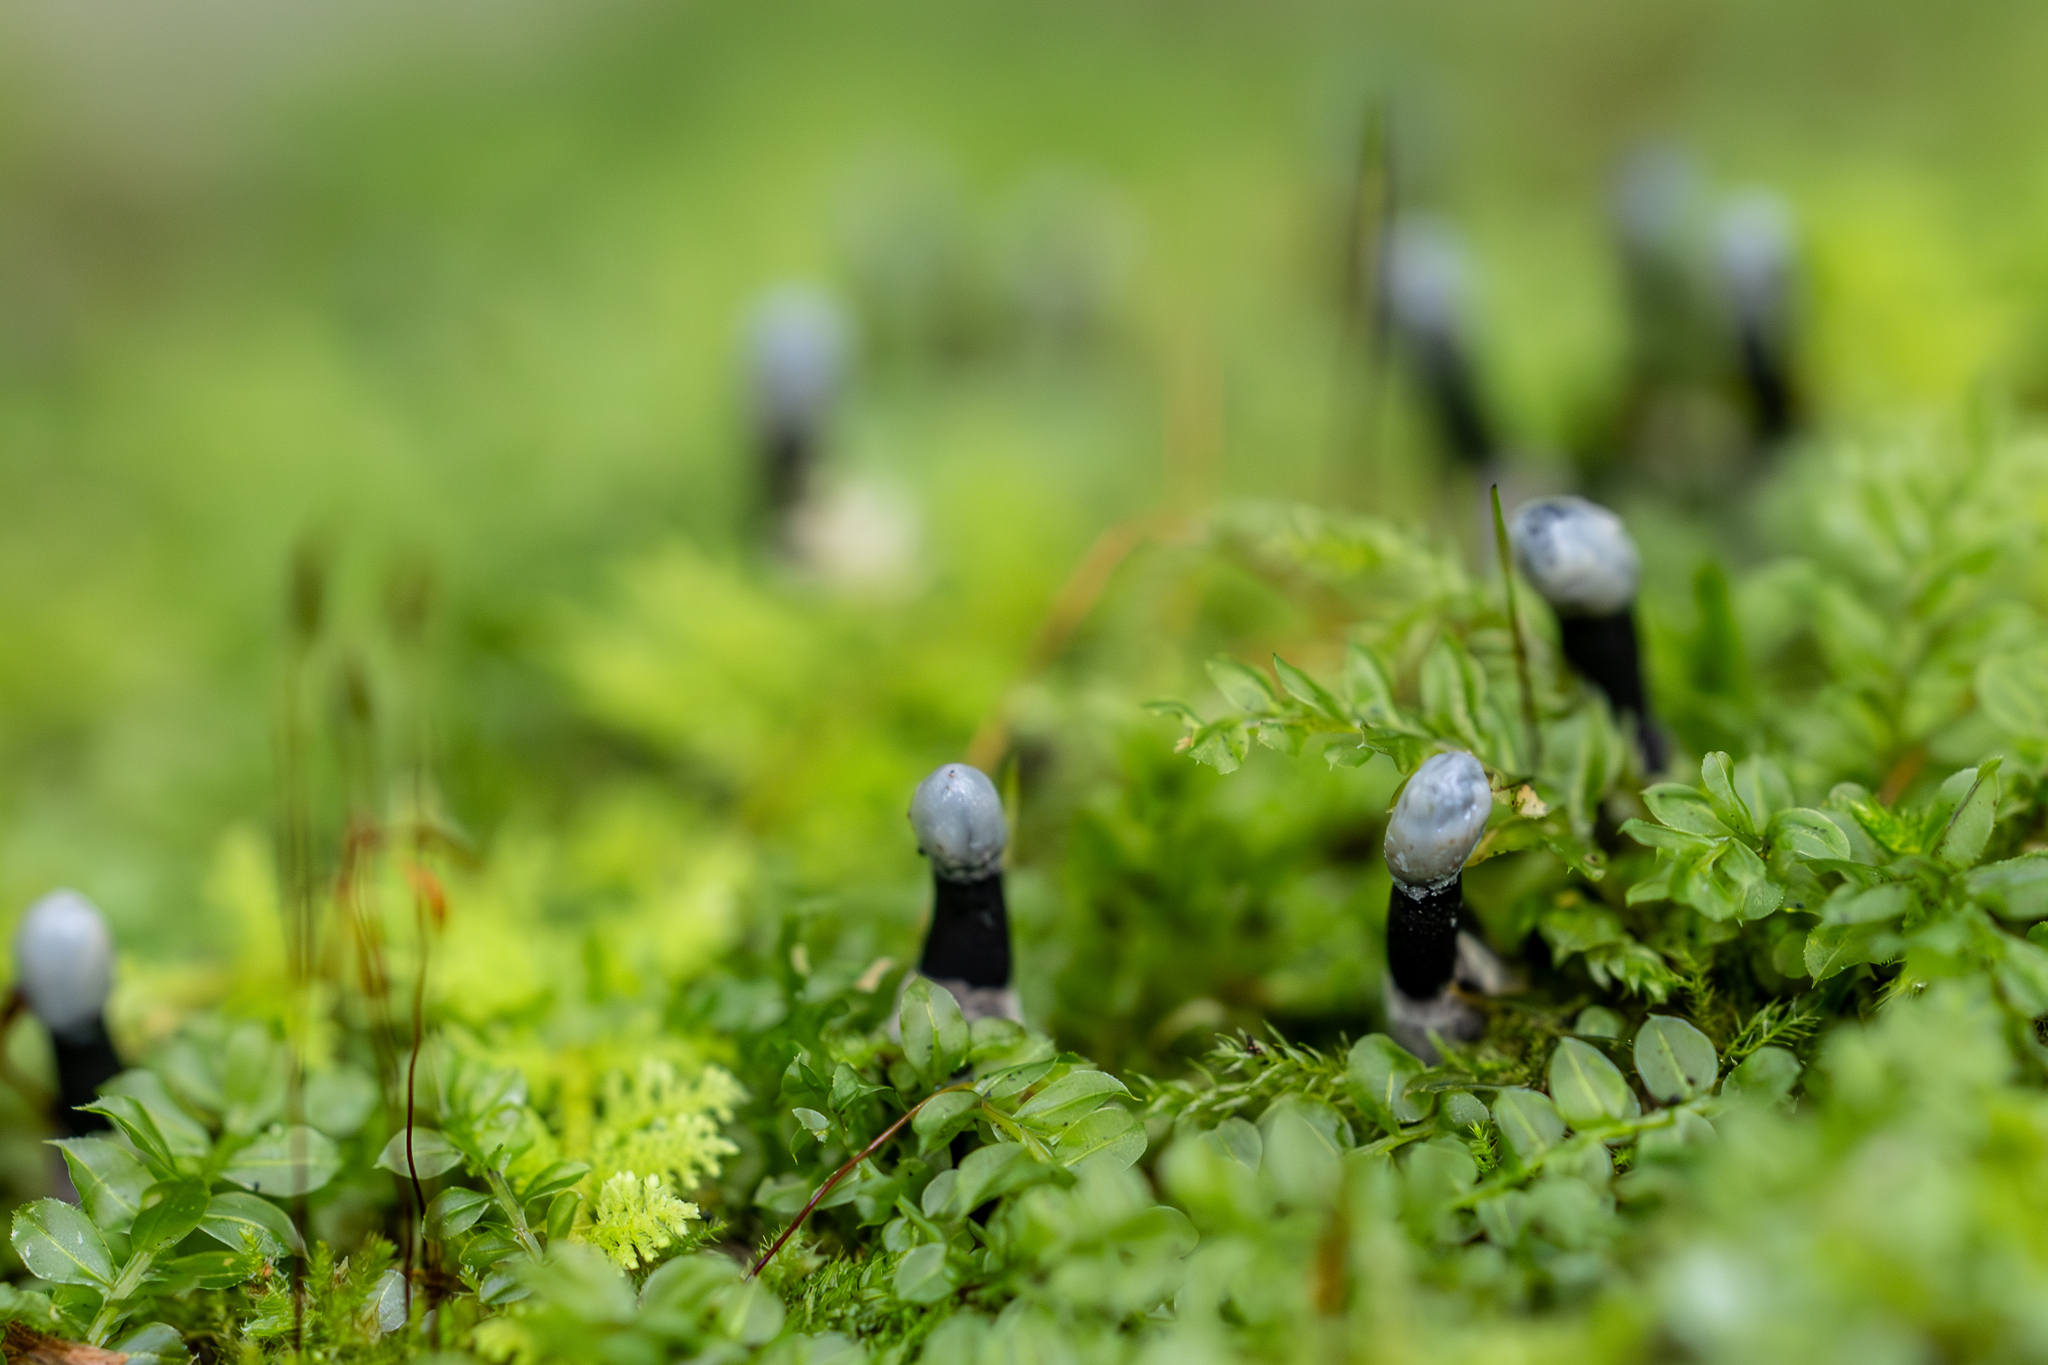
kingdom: Fungi
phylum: Ascomycota
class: Leotiomycetes
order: Helotiales
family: Bulgariaceae
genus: Holwaya
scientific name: Holwaya mucida
